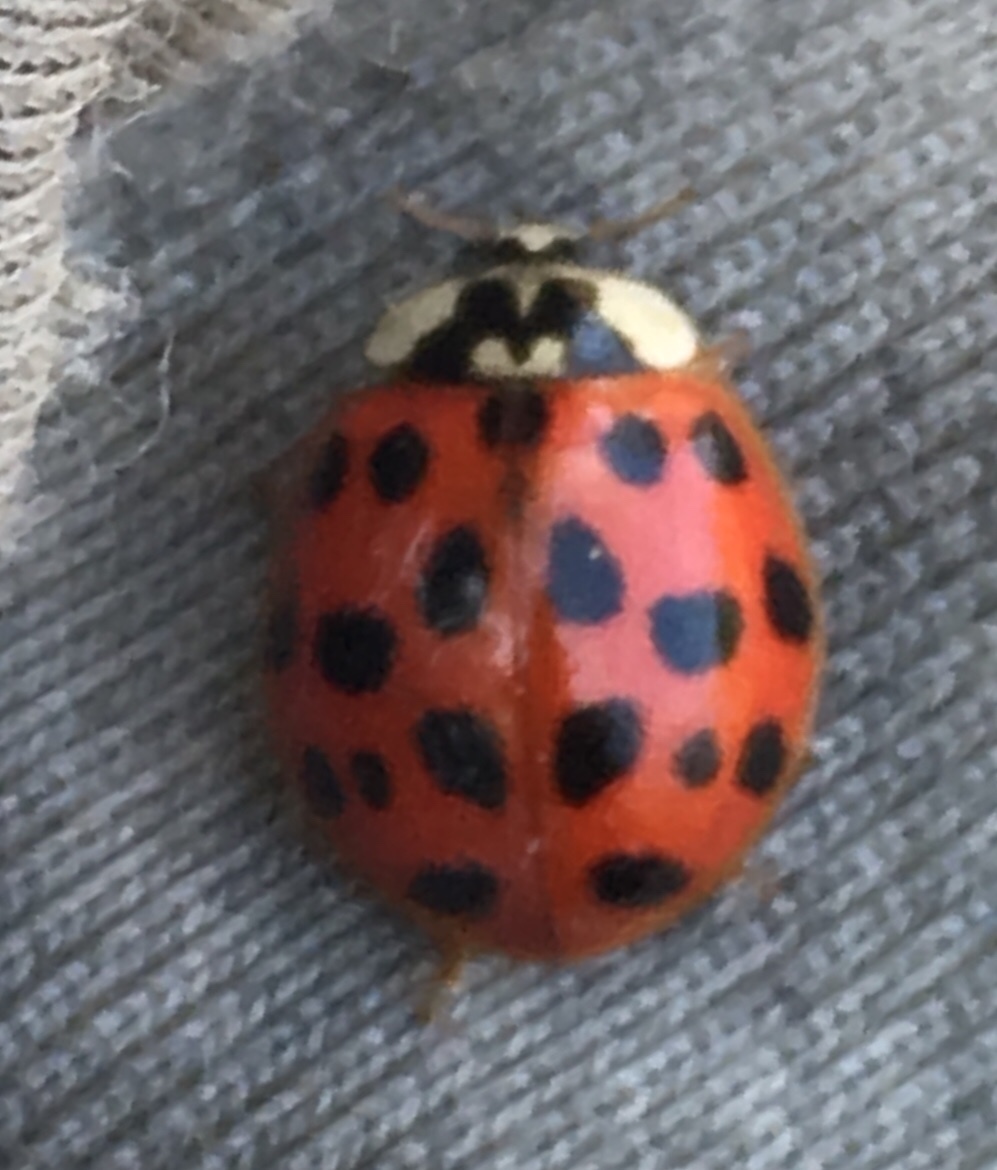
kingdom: Animalia
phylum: Arthropoda
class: Insecta
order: Coleoptera
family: Coccinellidae
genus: Harmonia
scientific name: Harmonia axyridis
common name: Harlequin ladybird
